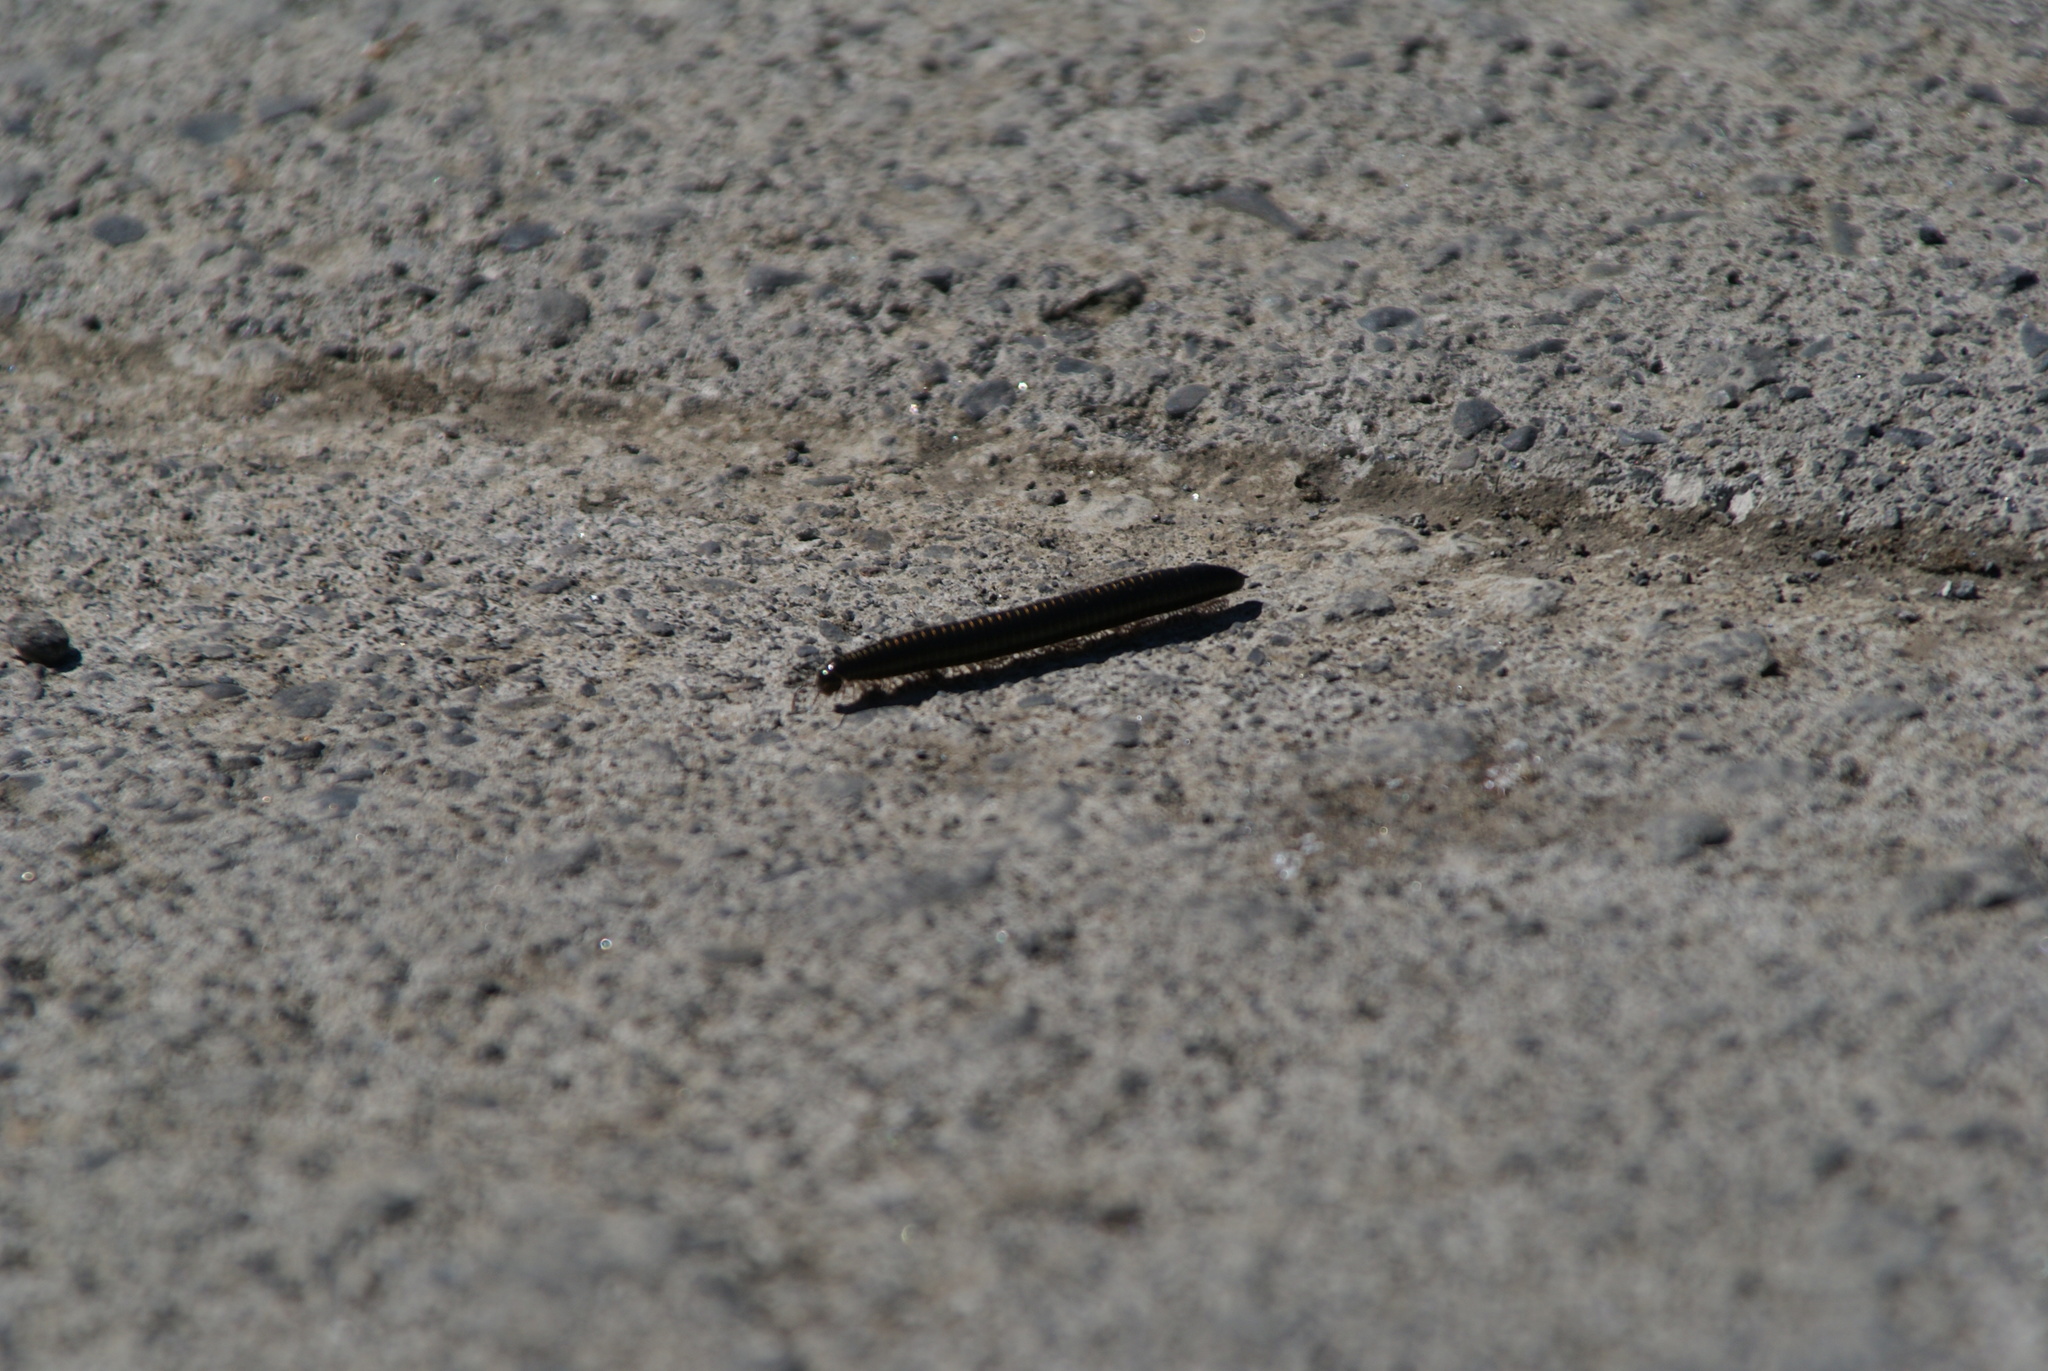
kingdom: Animalia
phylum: Arthropoda
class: Diplopoda
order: Julida
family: Julidae
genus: Ommatoiulus
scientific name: Ommatoiulus moreleti
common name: Portuguese millipede
